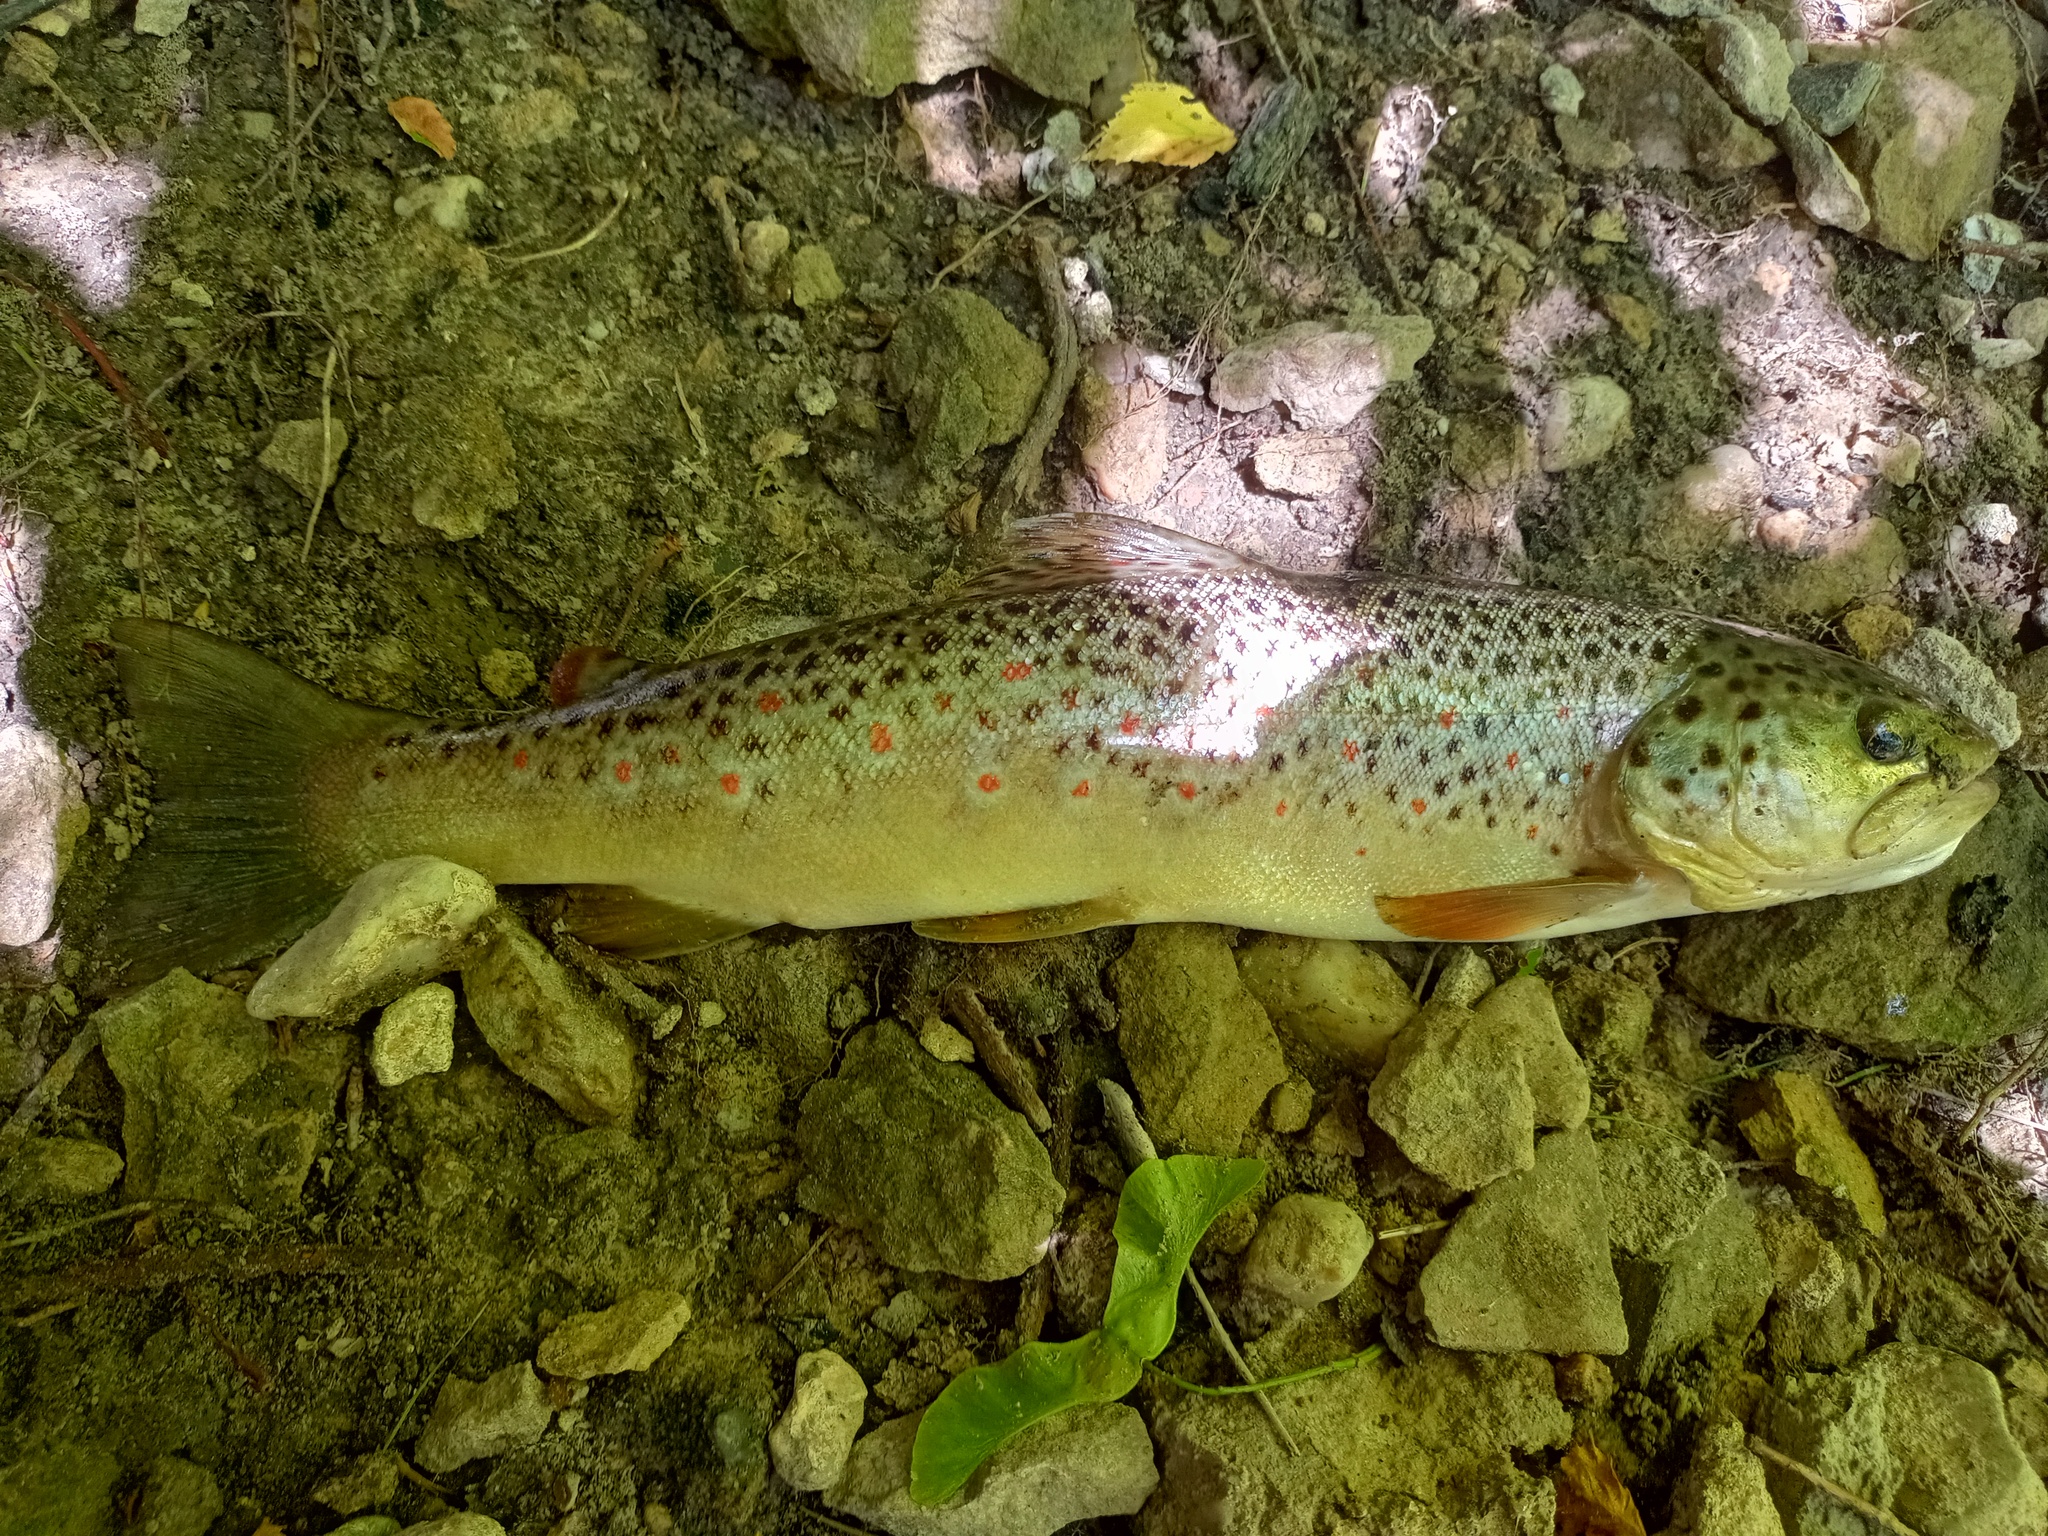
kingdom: Animalia
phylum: Chordata
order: Salmoniformes
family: Salmonidae
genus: Salmo
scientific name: Salmo trutta
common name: Brown trout
